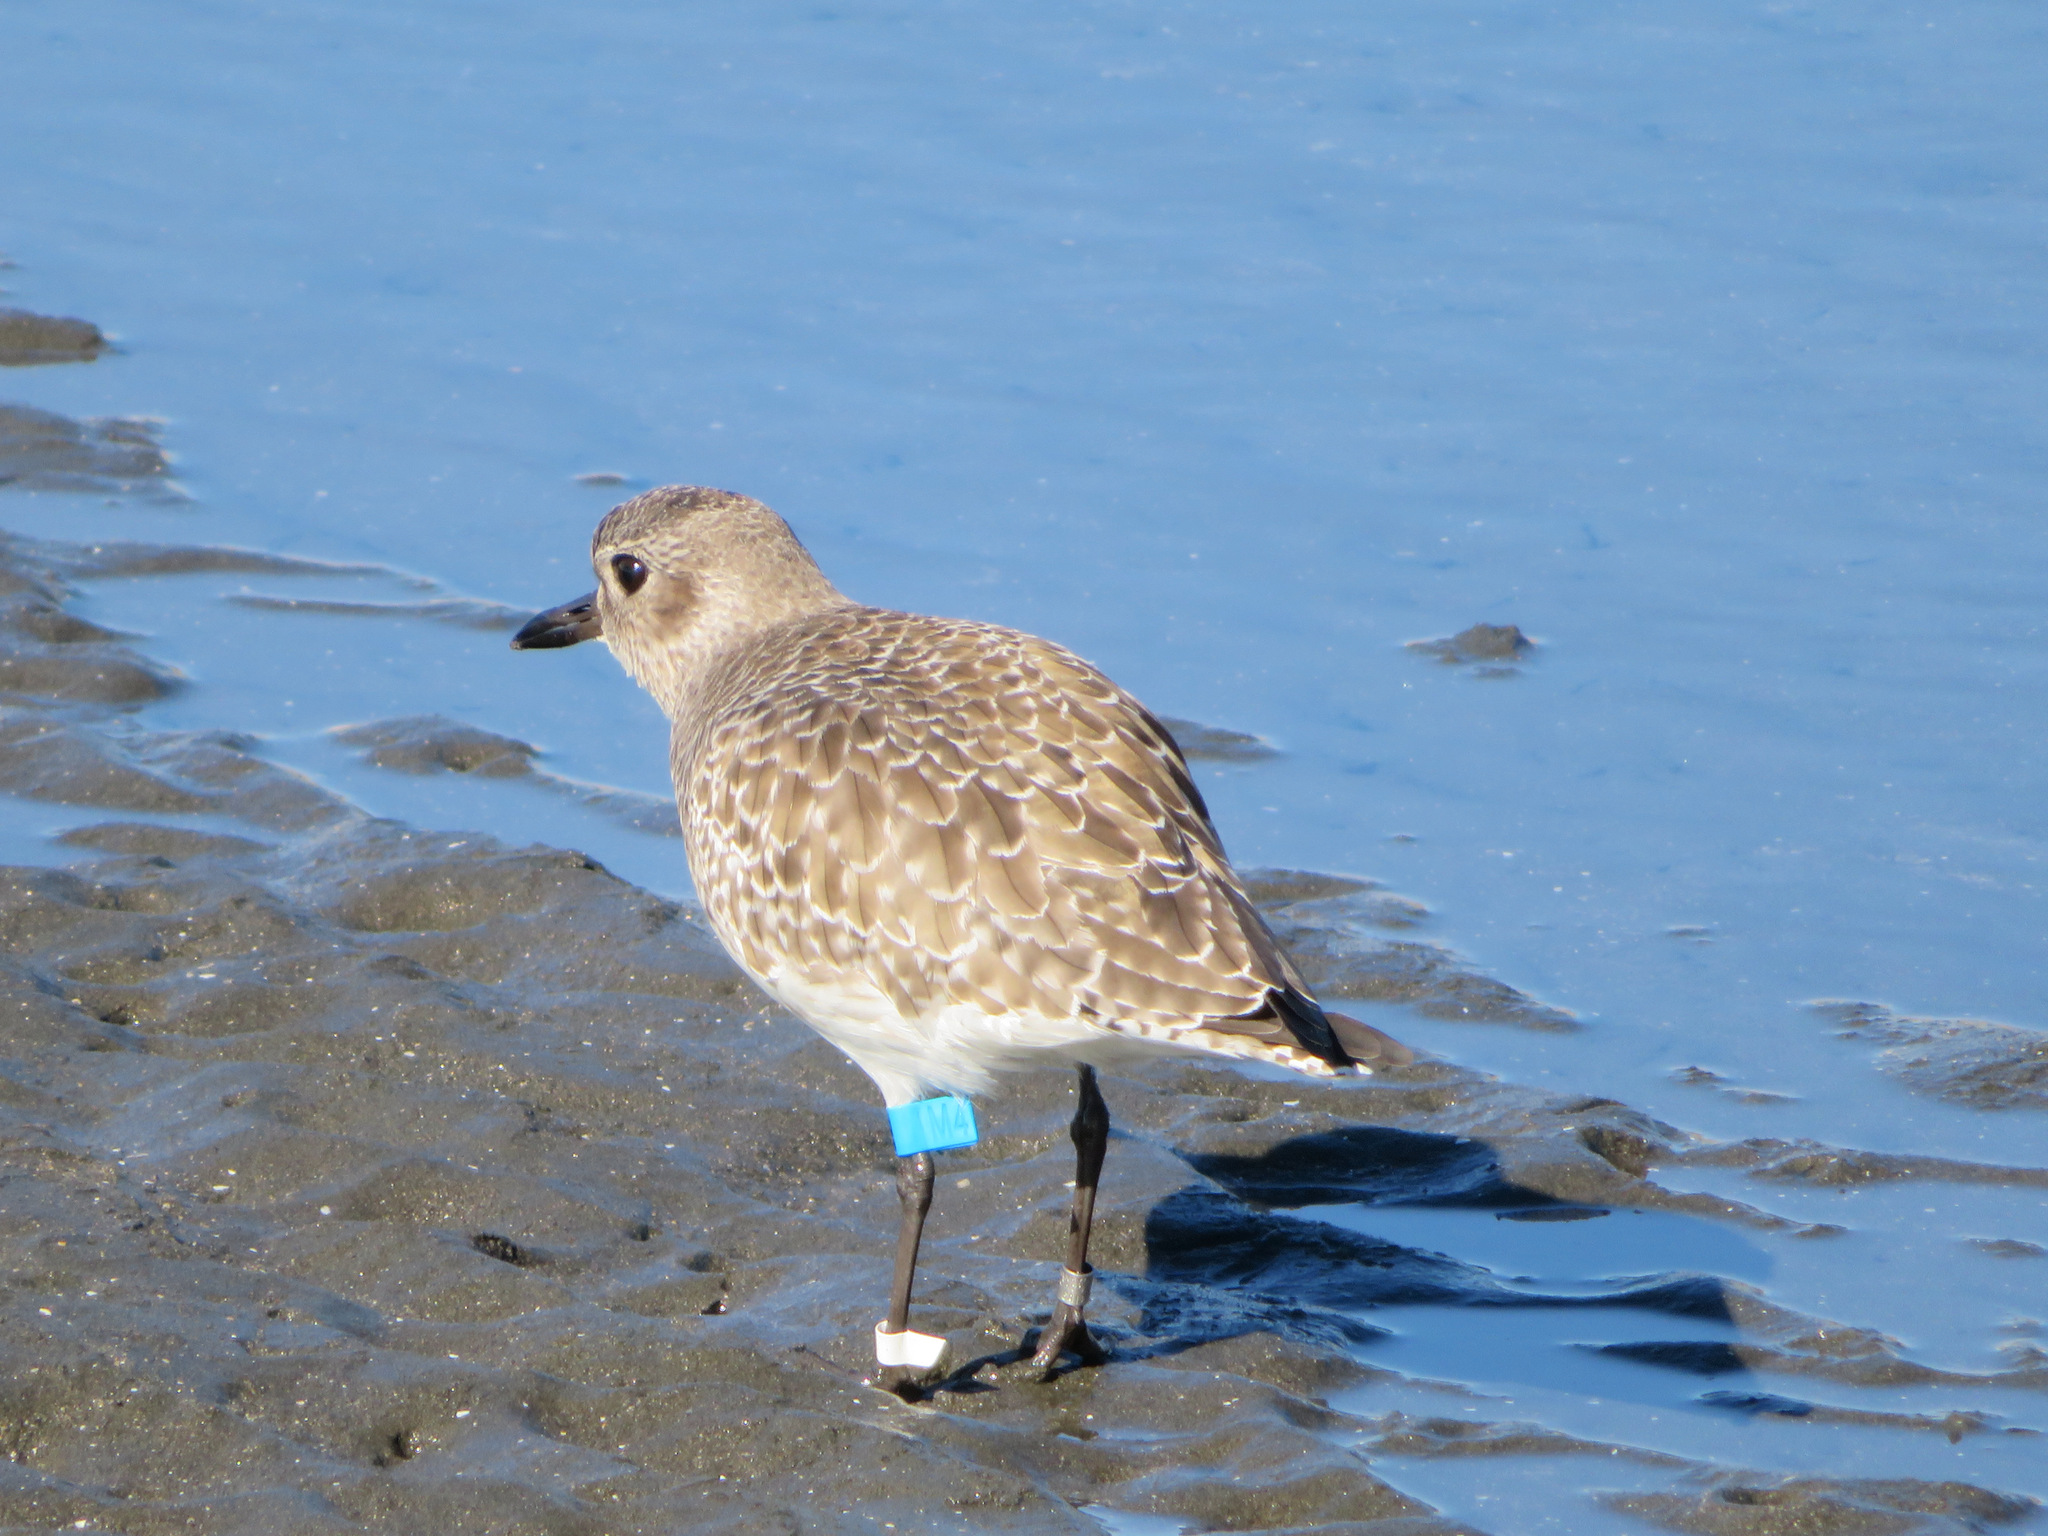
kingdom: Animalia
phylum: Chordata
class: Aves
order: Charadriiformes
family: Charadriidae
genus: Pluvialis
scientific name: Pluvialis squatarola
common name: Grey plover
